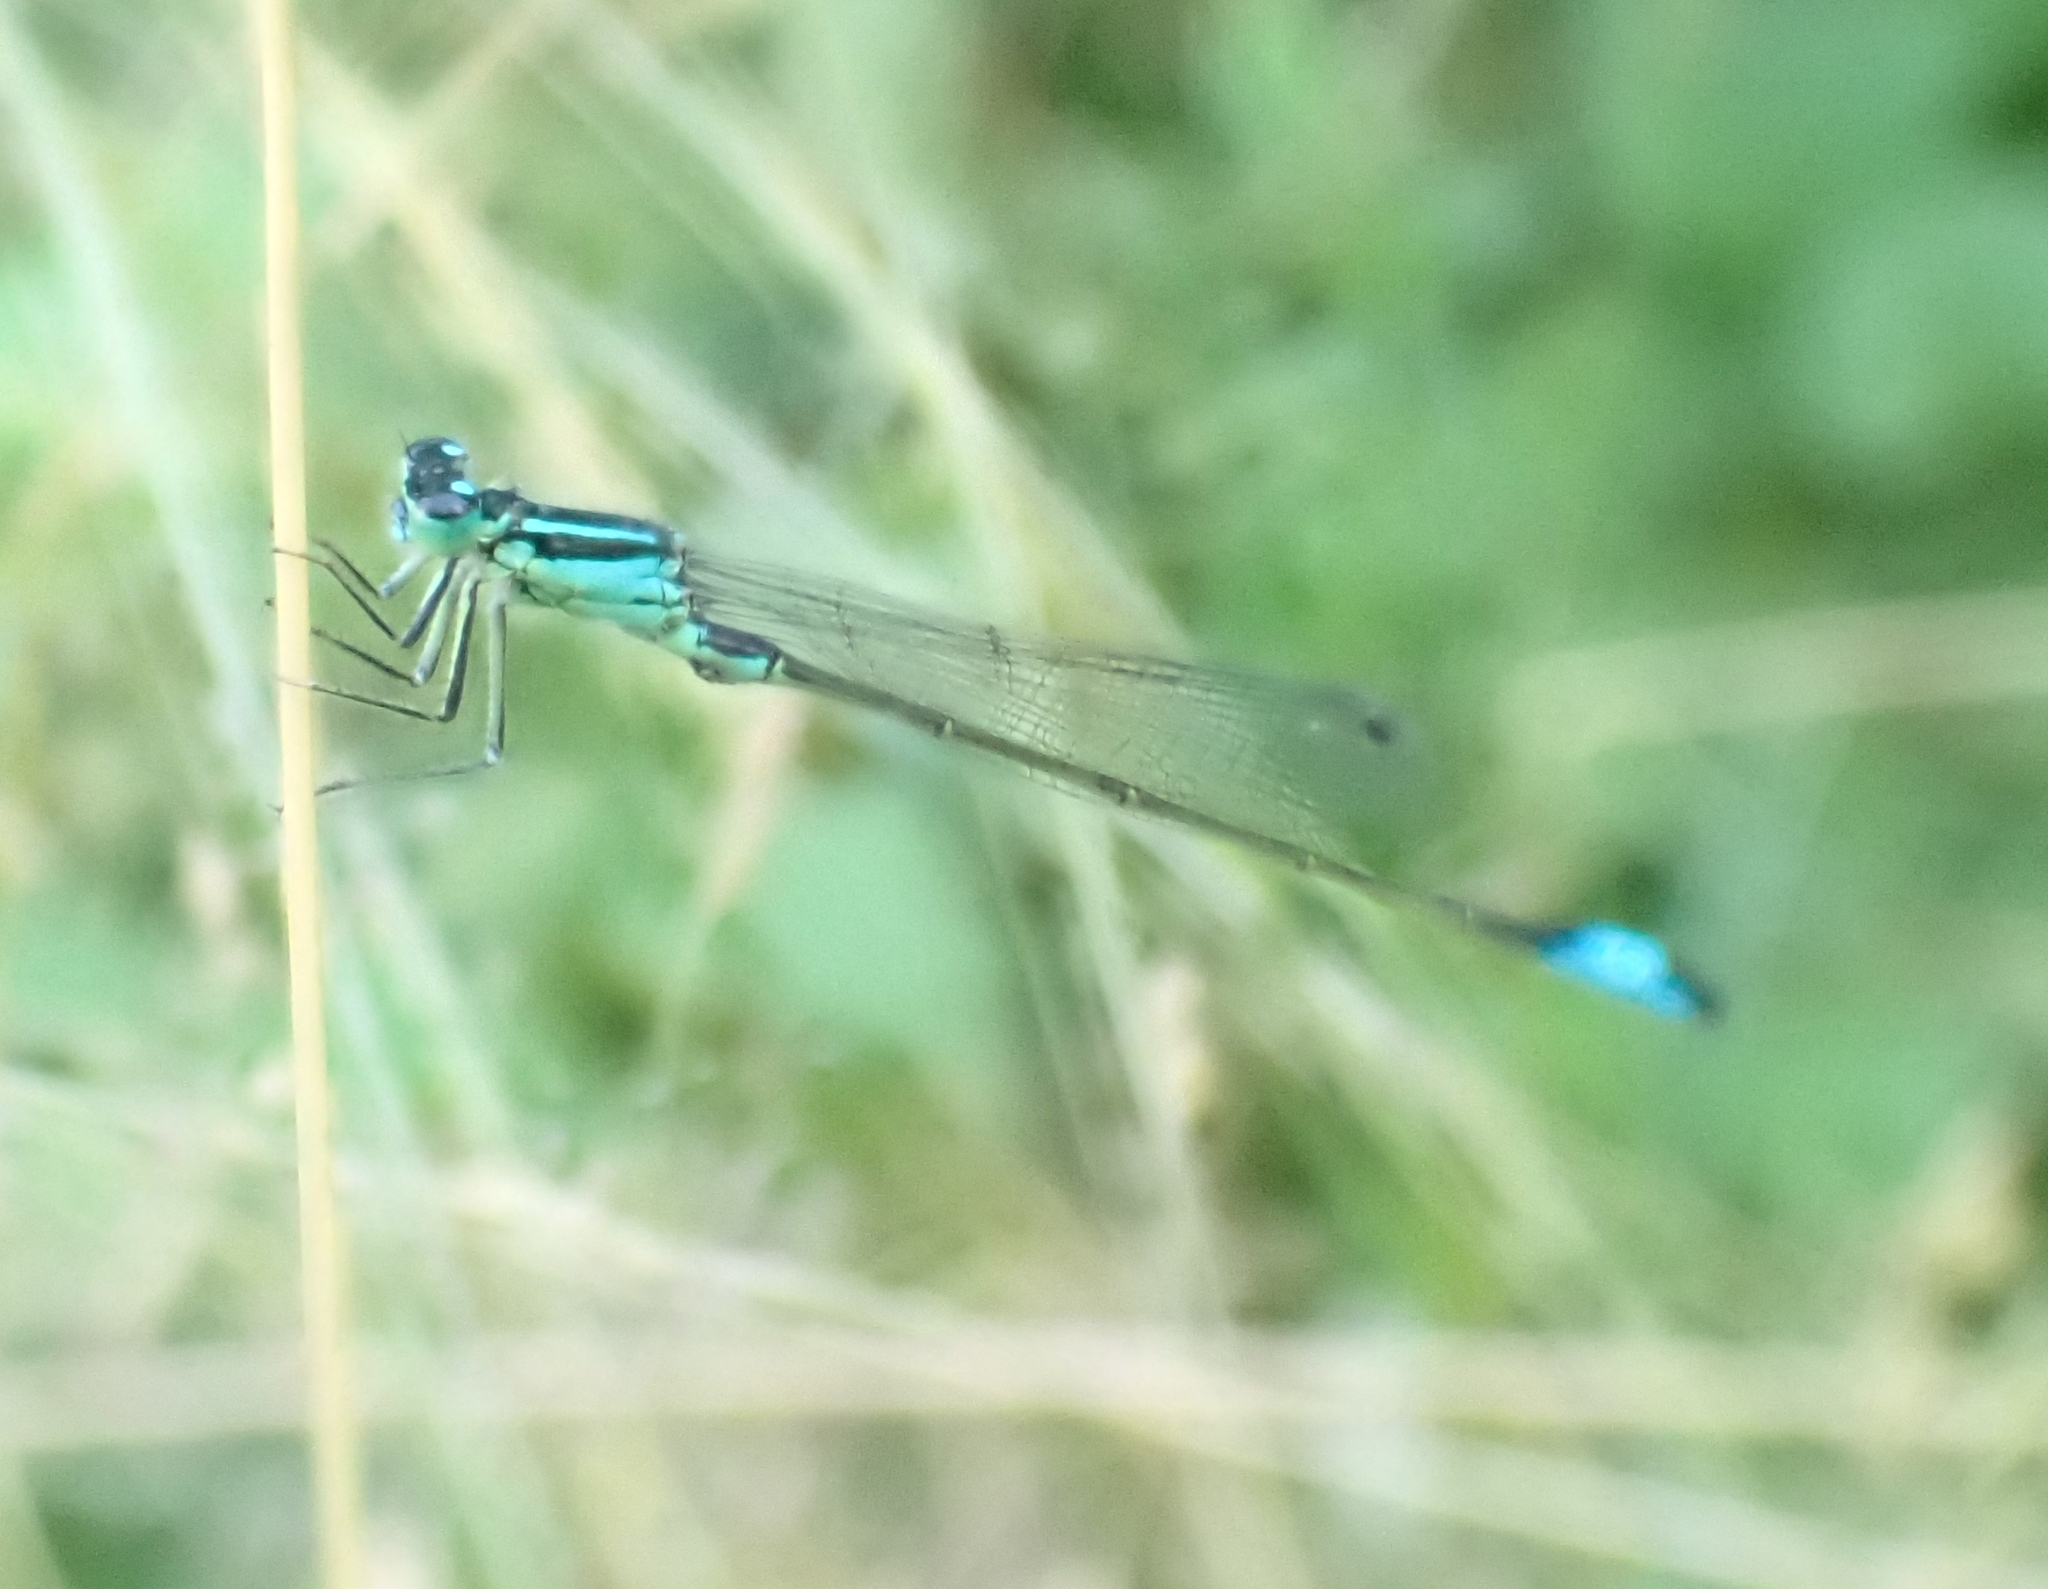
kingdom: Animalia
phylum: Arthropoda
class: Insecta
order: Odonata
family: Coenagrionidae
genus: Ischnura
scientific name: Ischnura elegans
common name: Blue-tailed damselfly
